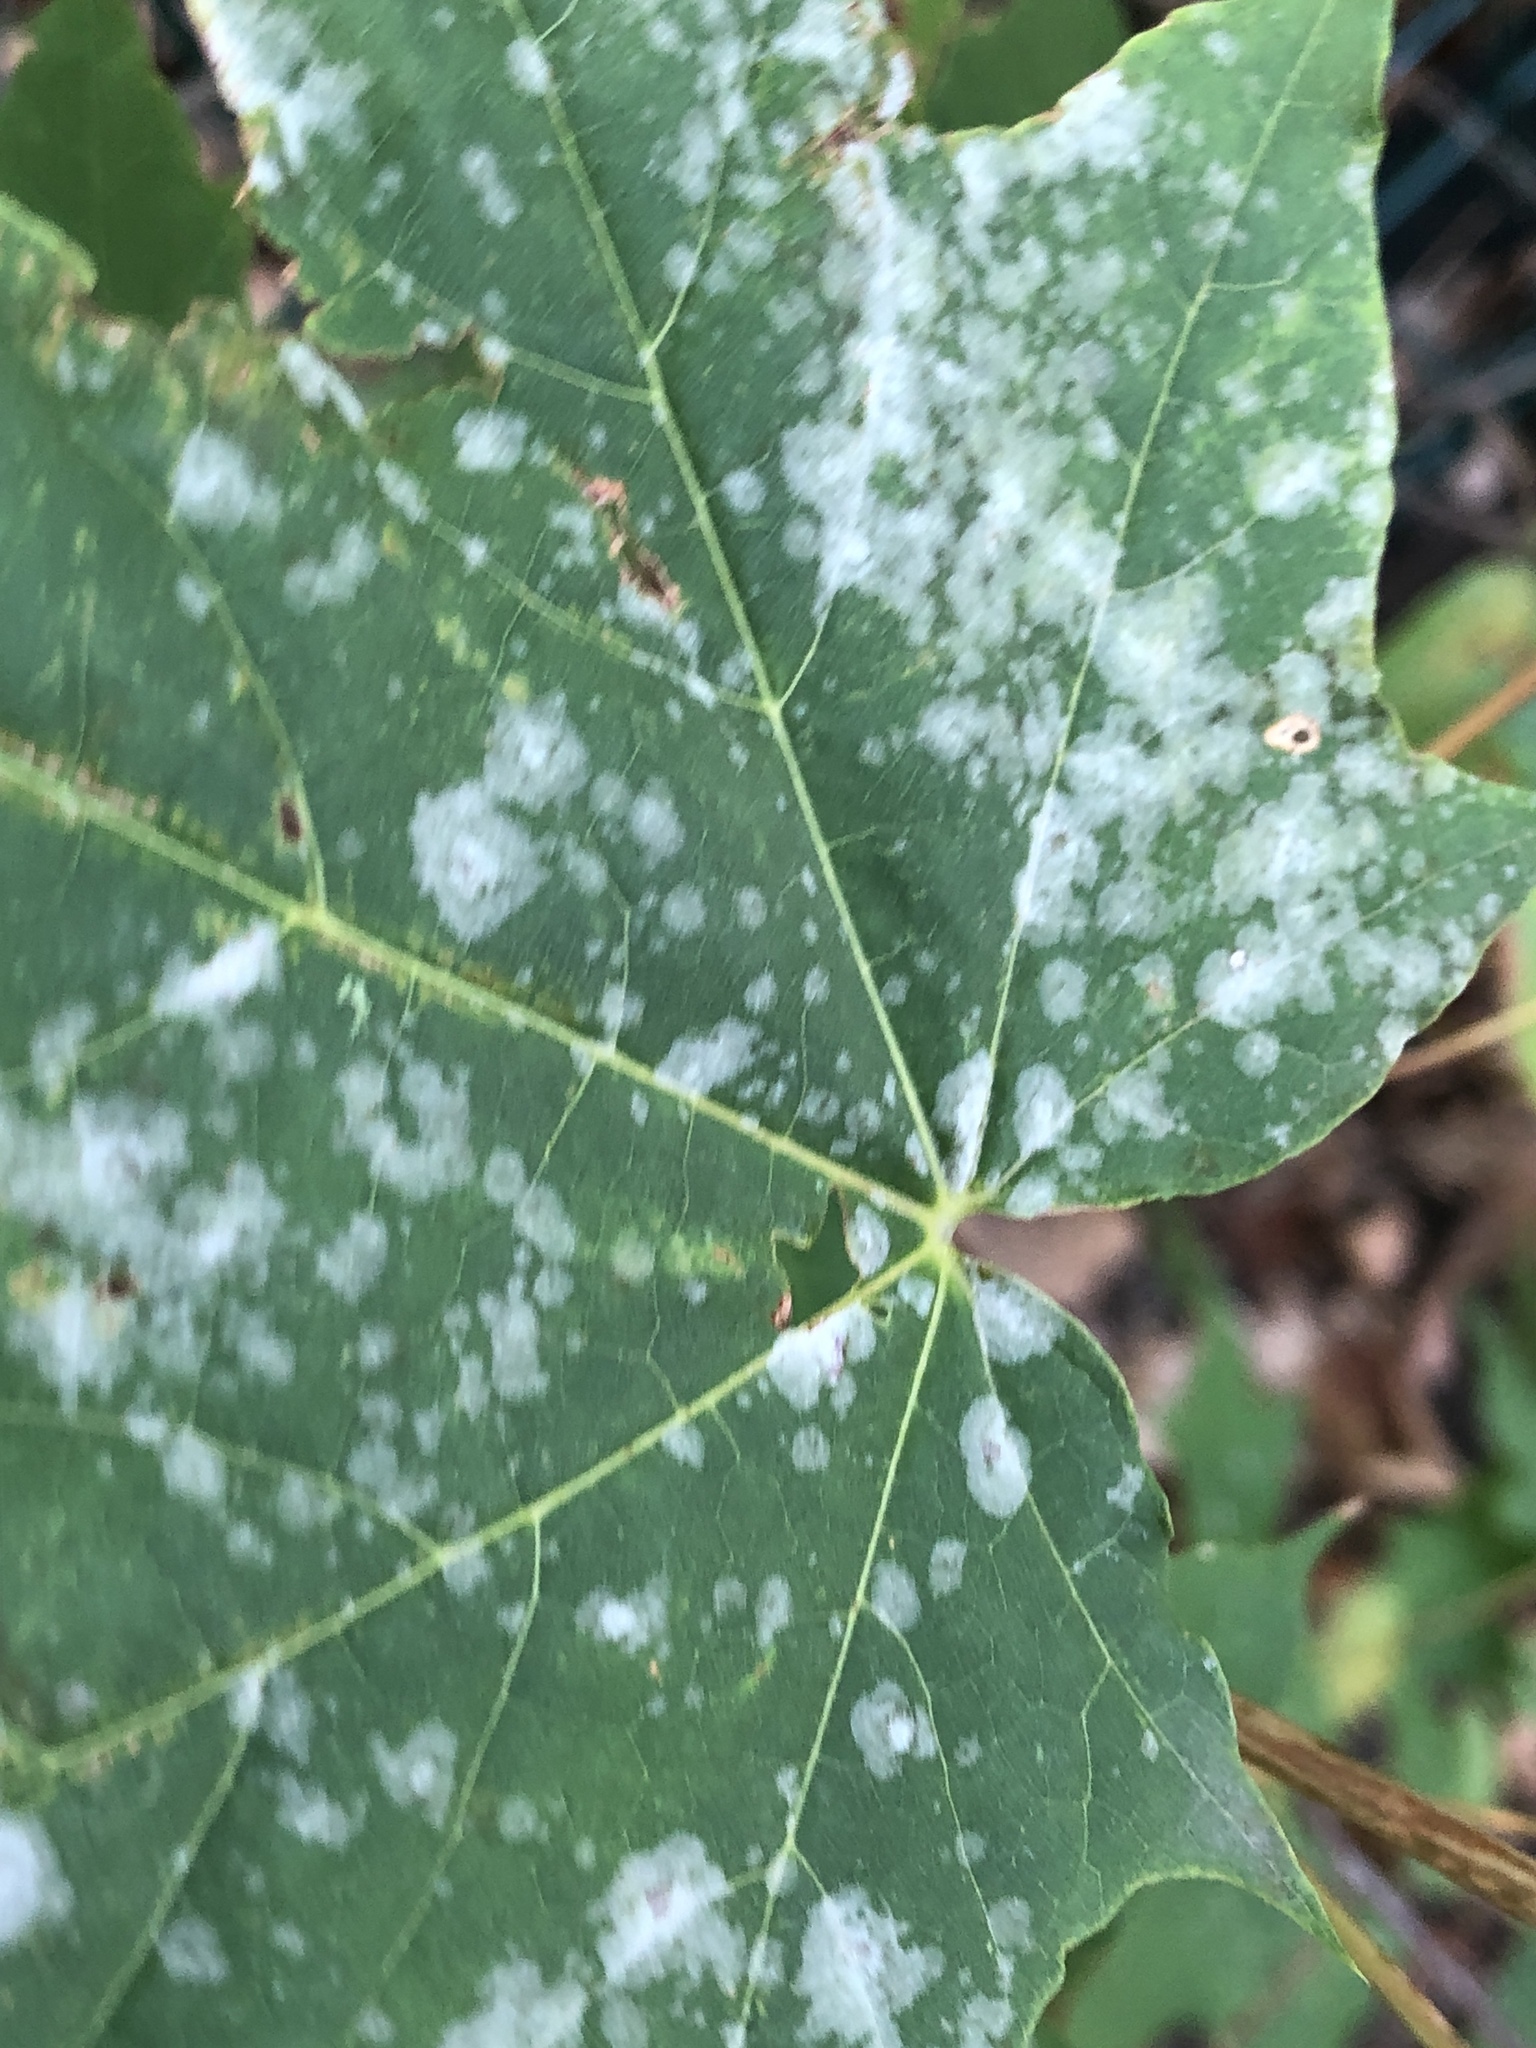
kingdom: Fungi
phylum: Ascomycota
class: Leotiomycetes
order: Helotiales
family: Erysiphaceae
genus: Sawadaea
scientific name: Sawadaea tulasnei
